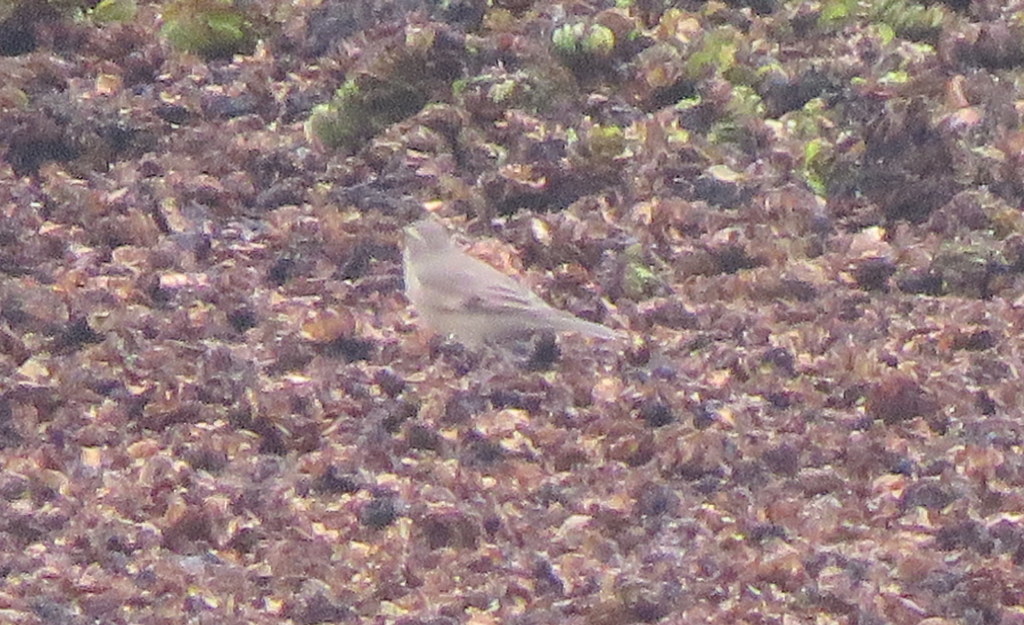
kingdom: Animalia
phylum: Chordata
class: Aves
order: Passeriformes
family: Furnariidae
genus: Cinclodes
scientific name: Cinclodes fuscus
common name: Buff-winged cinclodes
